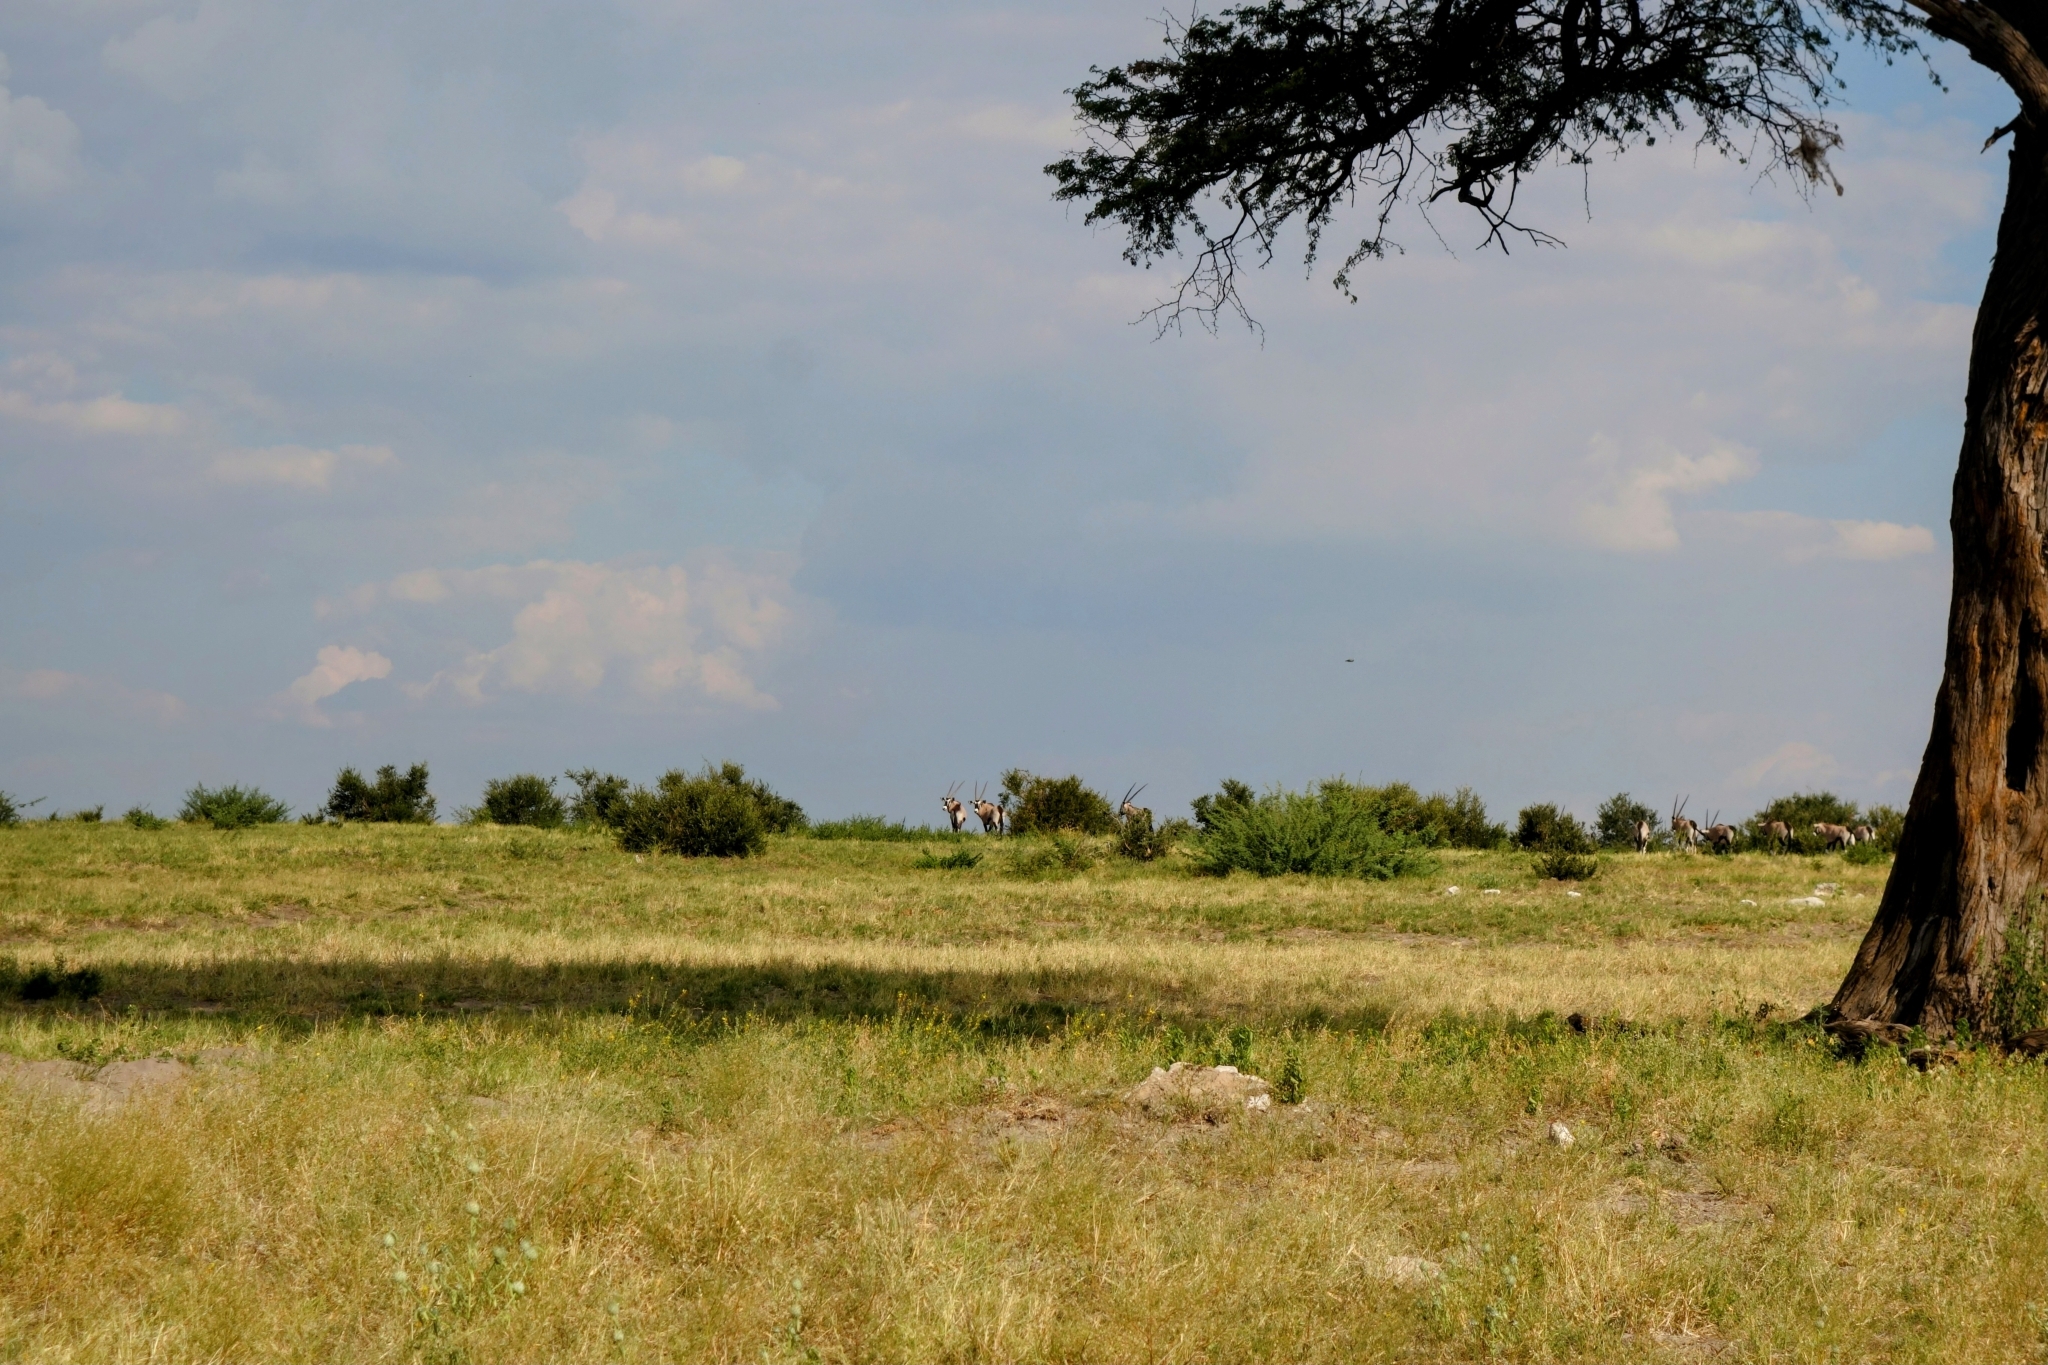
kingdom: Animalia
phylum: Chordata
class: Mammalia
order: Artiodactyla
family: Bovidae
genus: Oryx
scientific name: Oryx gazella
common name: Gemsbok
